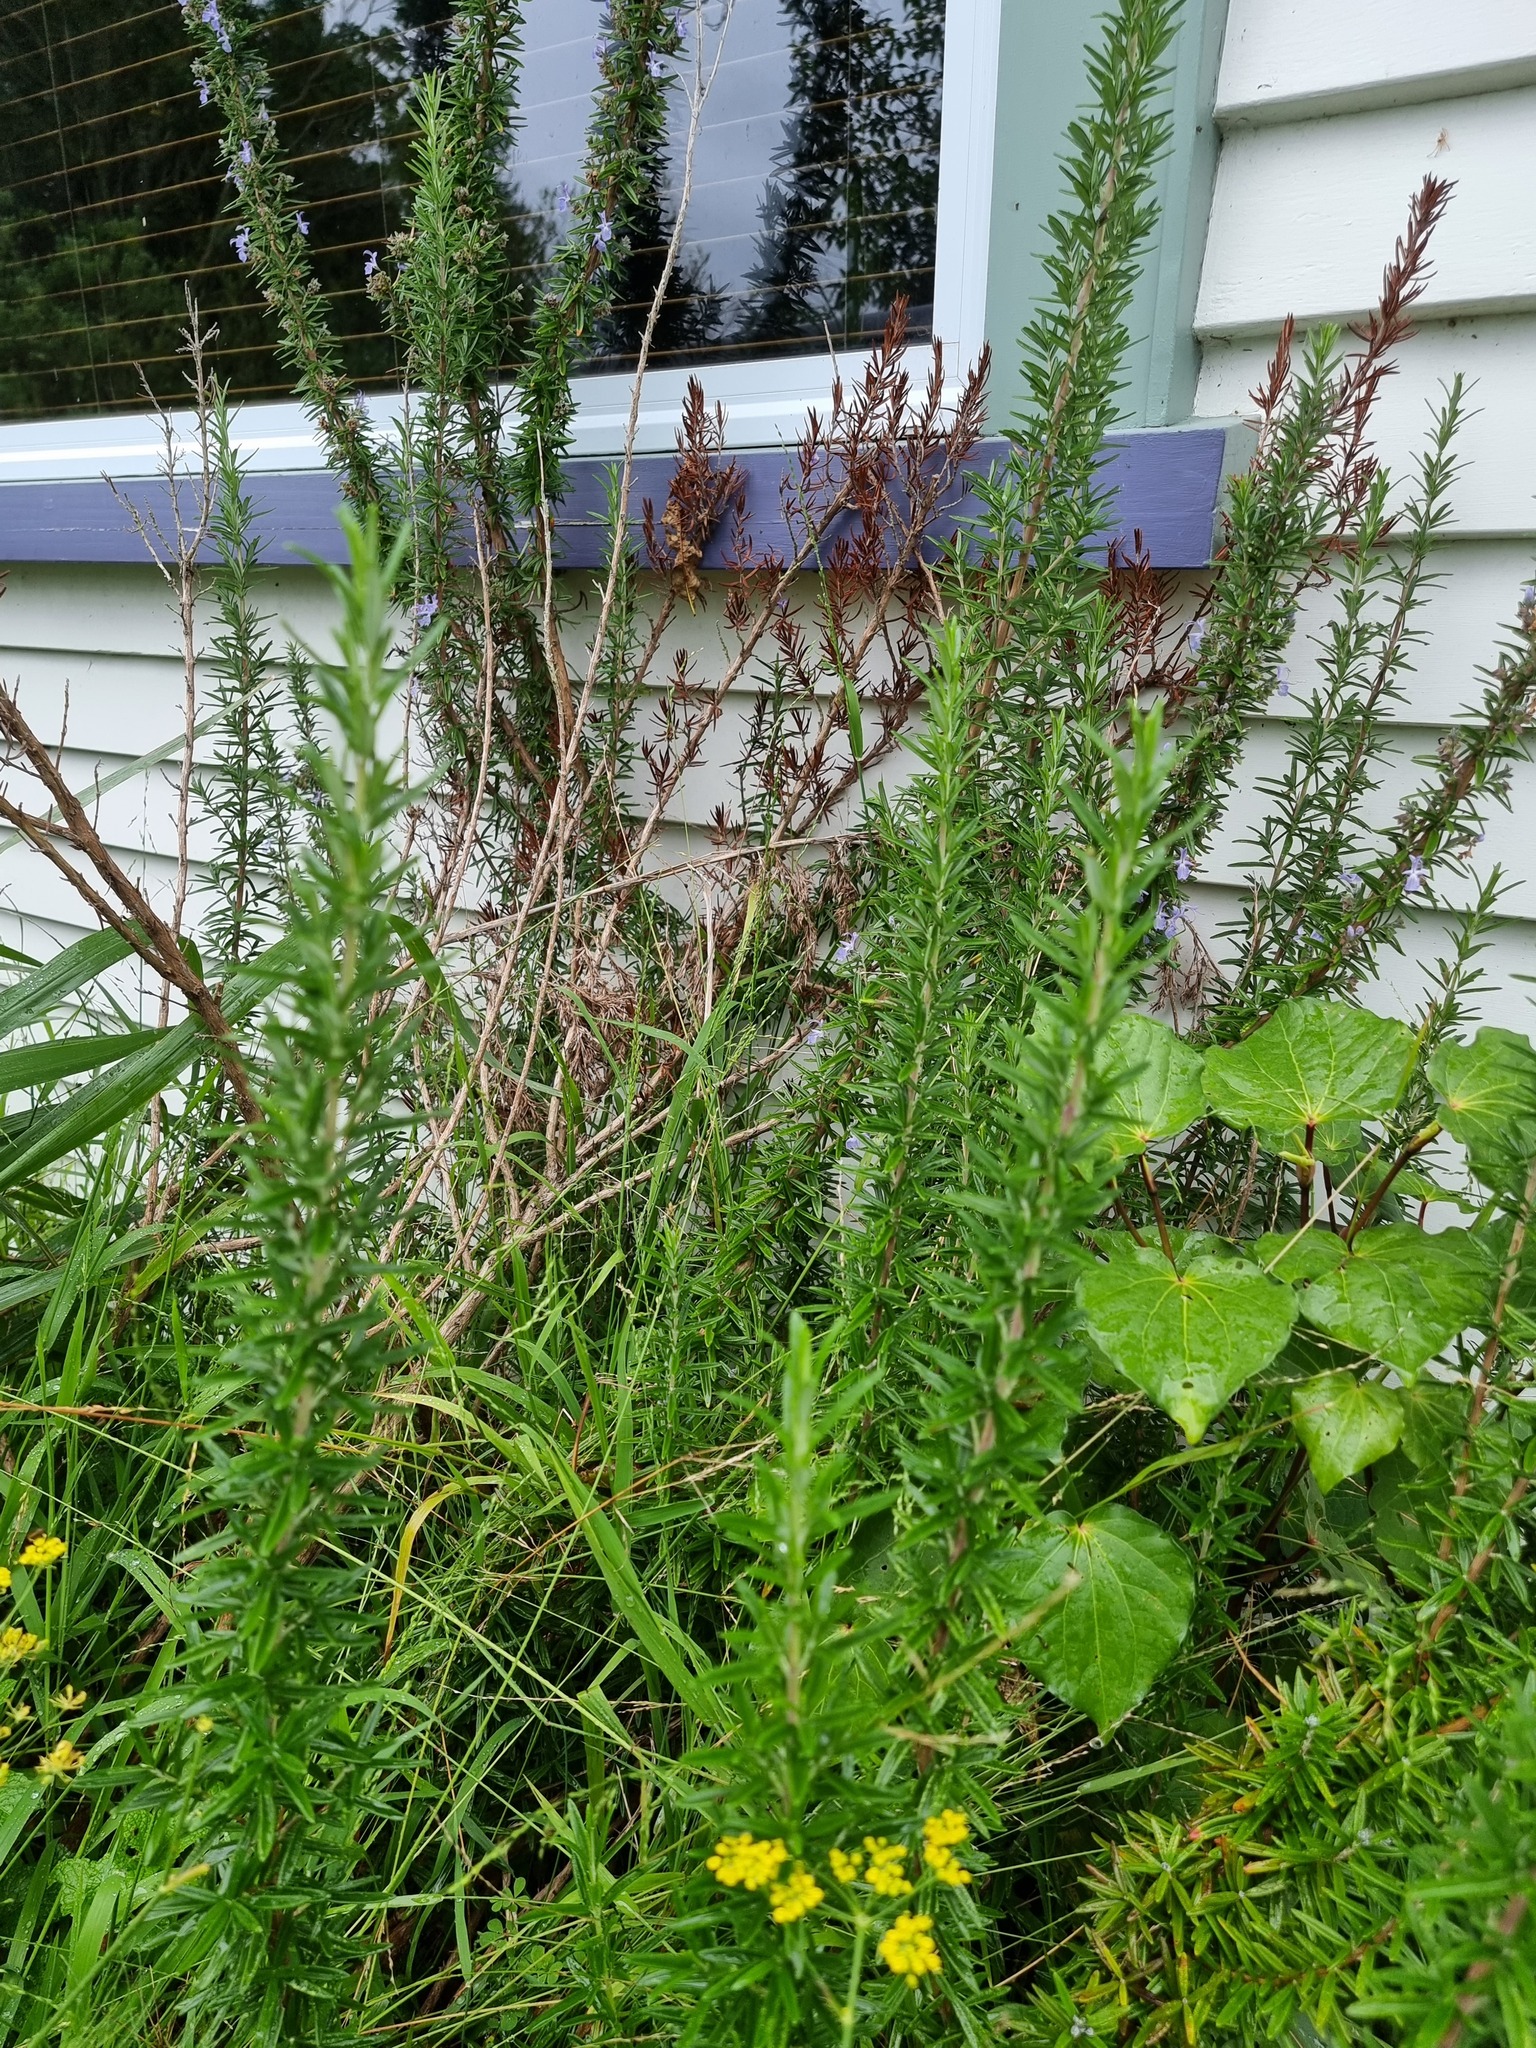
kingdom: Plantae
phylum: Tracheophyta
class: Magnoliopsida
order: Lamiales
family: Lamiaceae
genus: Salvia
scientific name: Salvia rosmarinus
